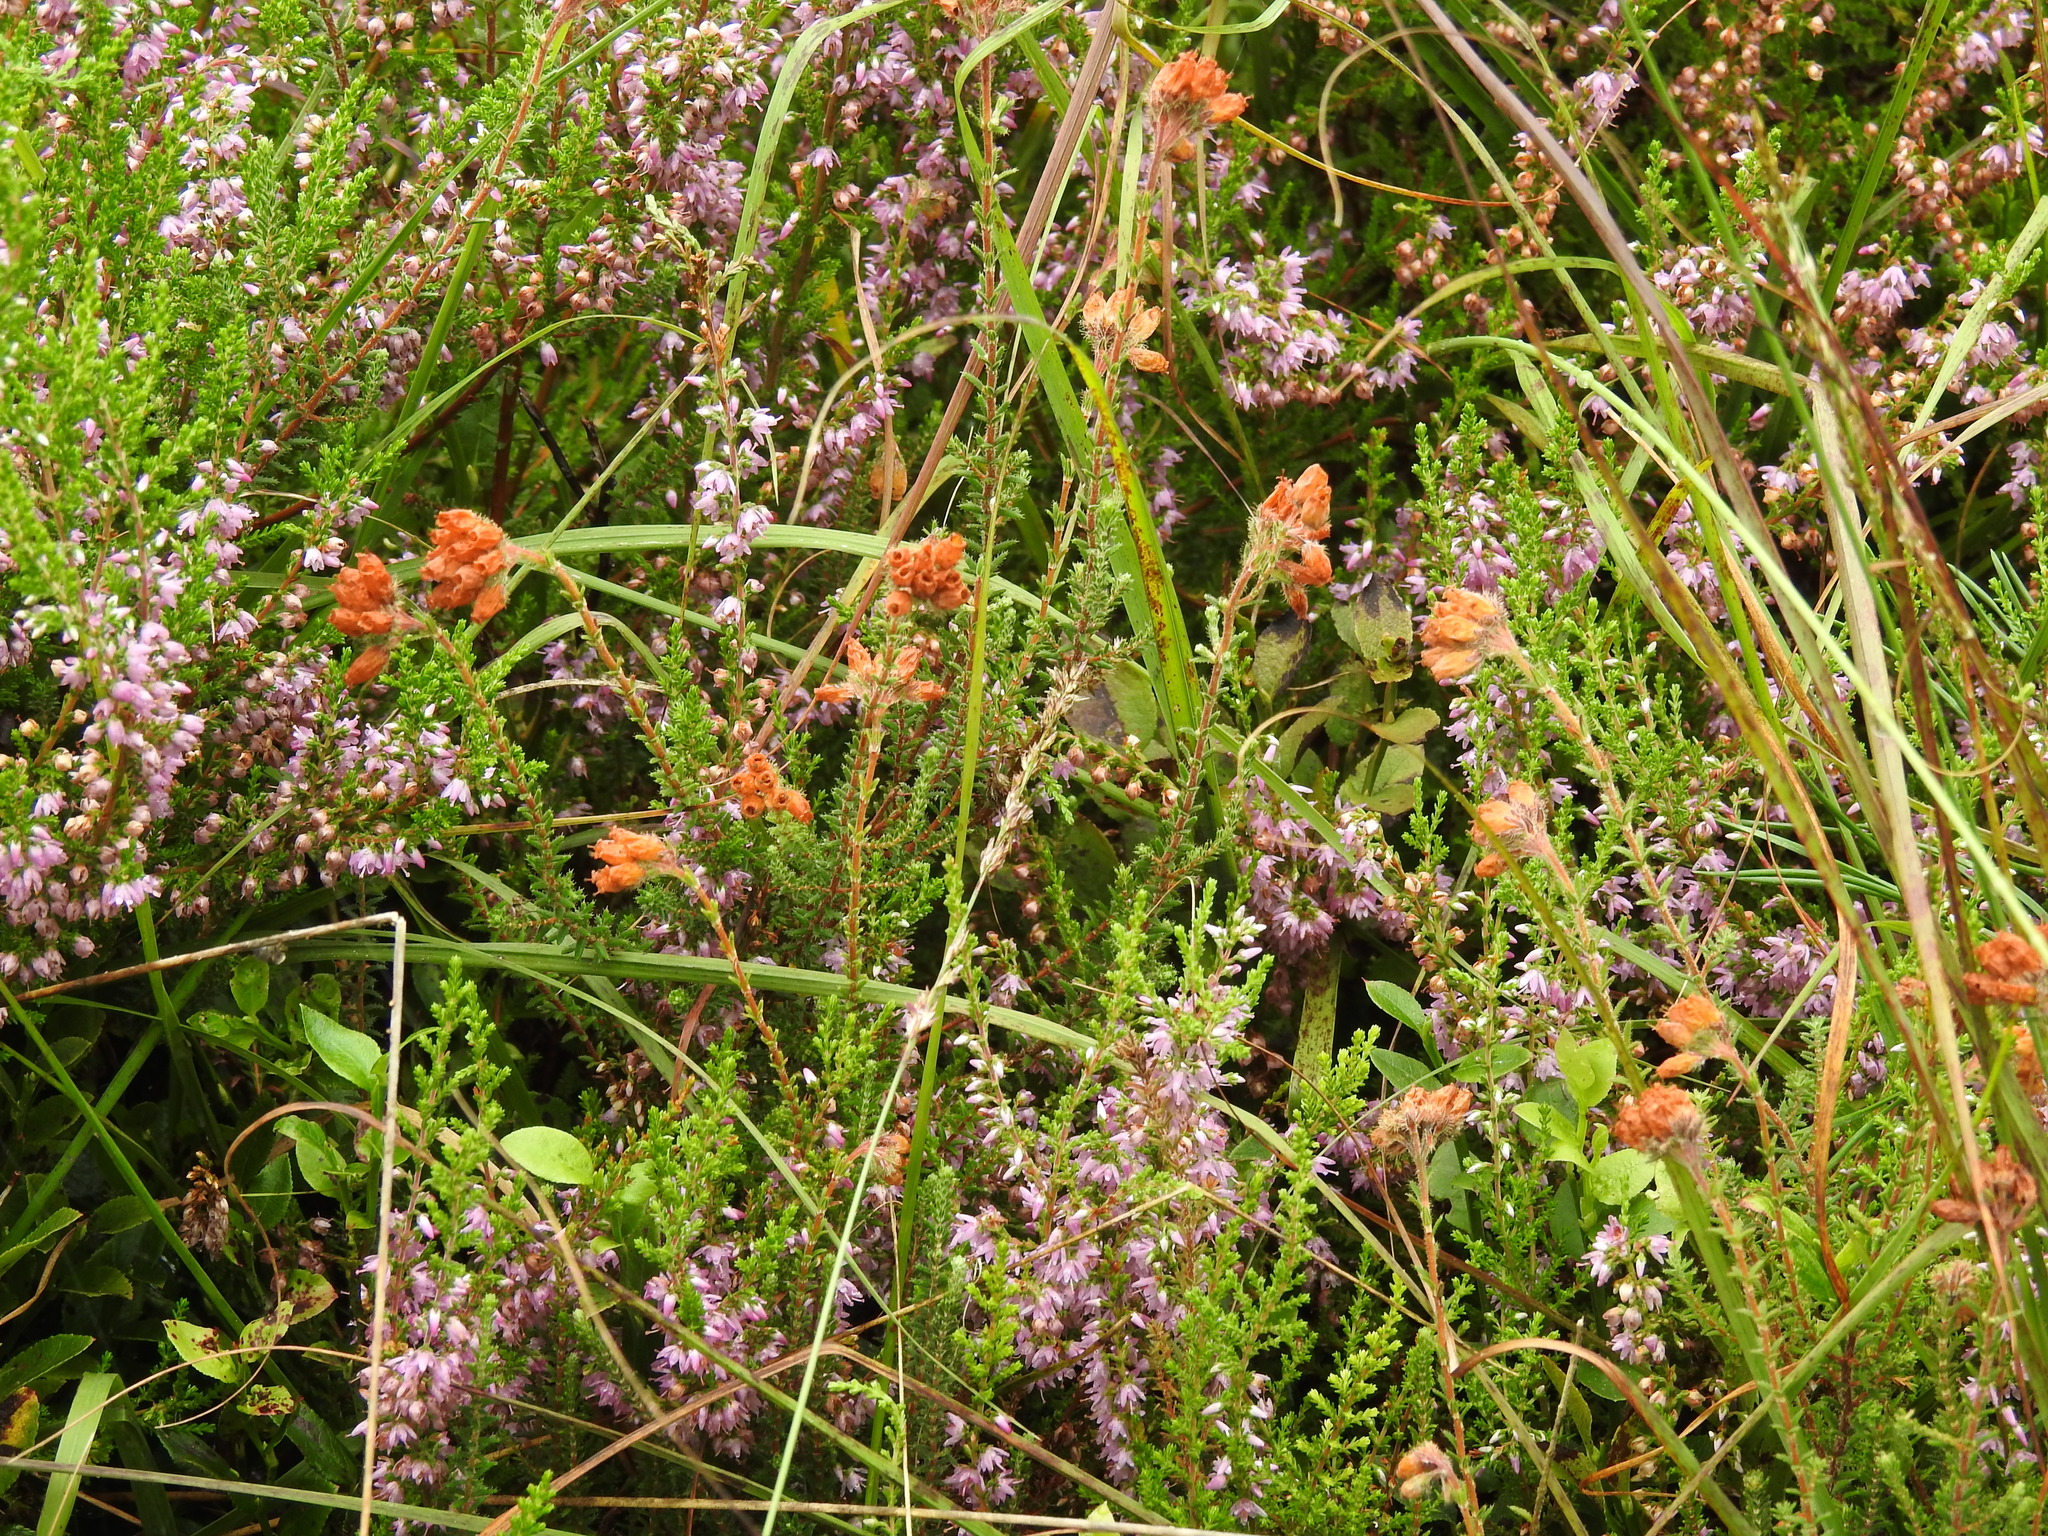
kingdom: Plantae
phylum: Tracheophyta
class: Magnoliopsida
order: Ericales
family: Ericaceae
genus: Erica
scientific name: Erica tetralix
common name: Cross-leaved heath
